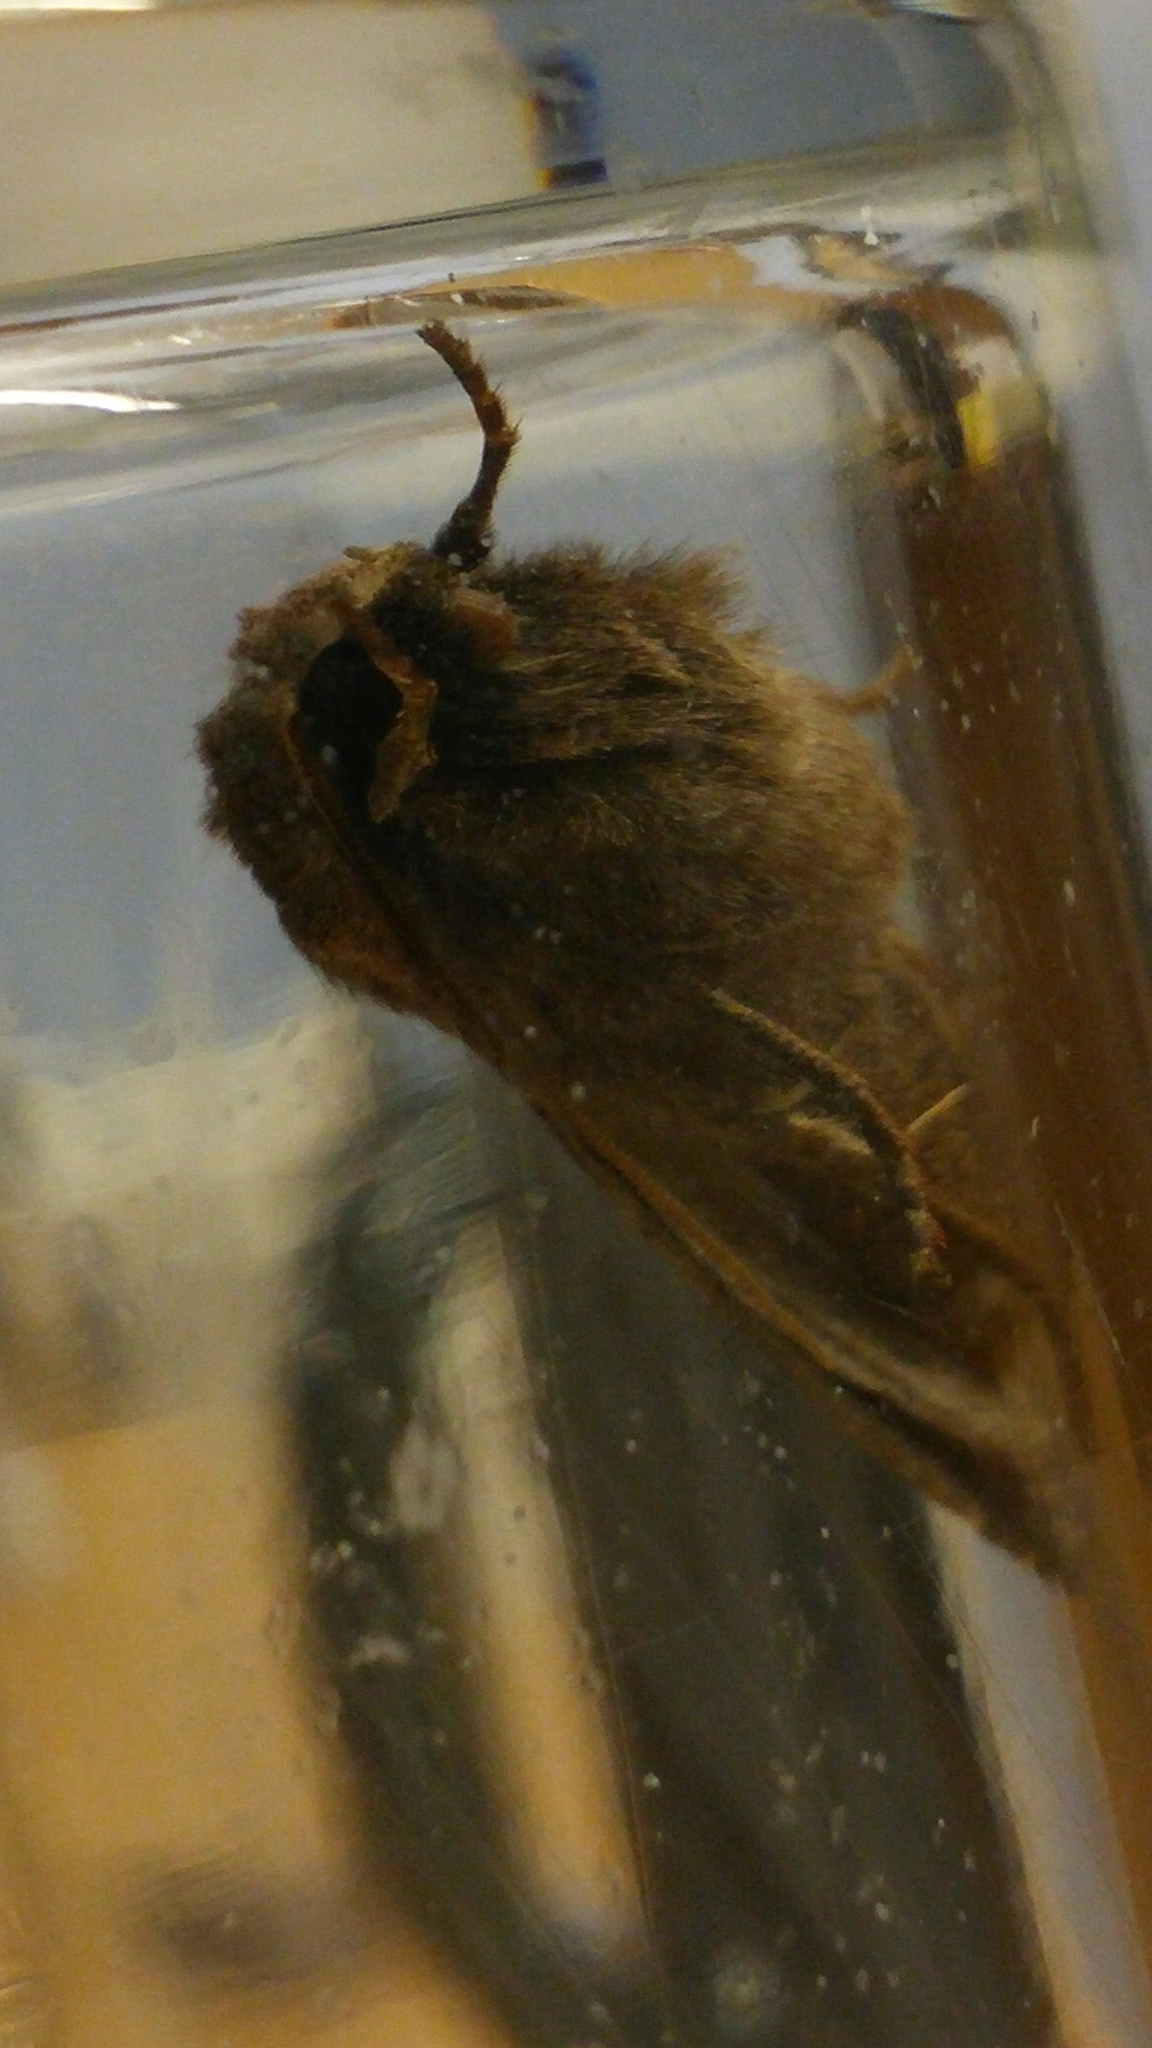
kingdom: Animalia
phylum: Arthropoda
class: Insecta
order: Lepidoptera
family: Noctuidae
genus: Xestia
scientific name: Xestia xanthographa
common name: Square-spot rustic
